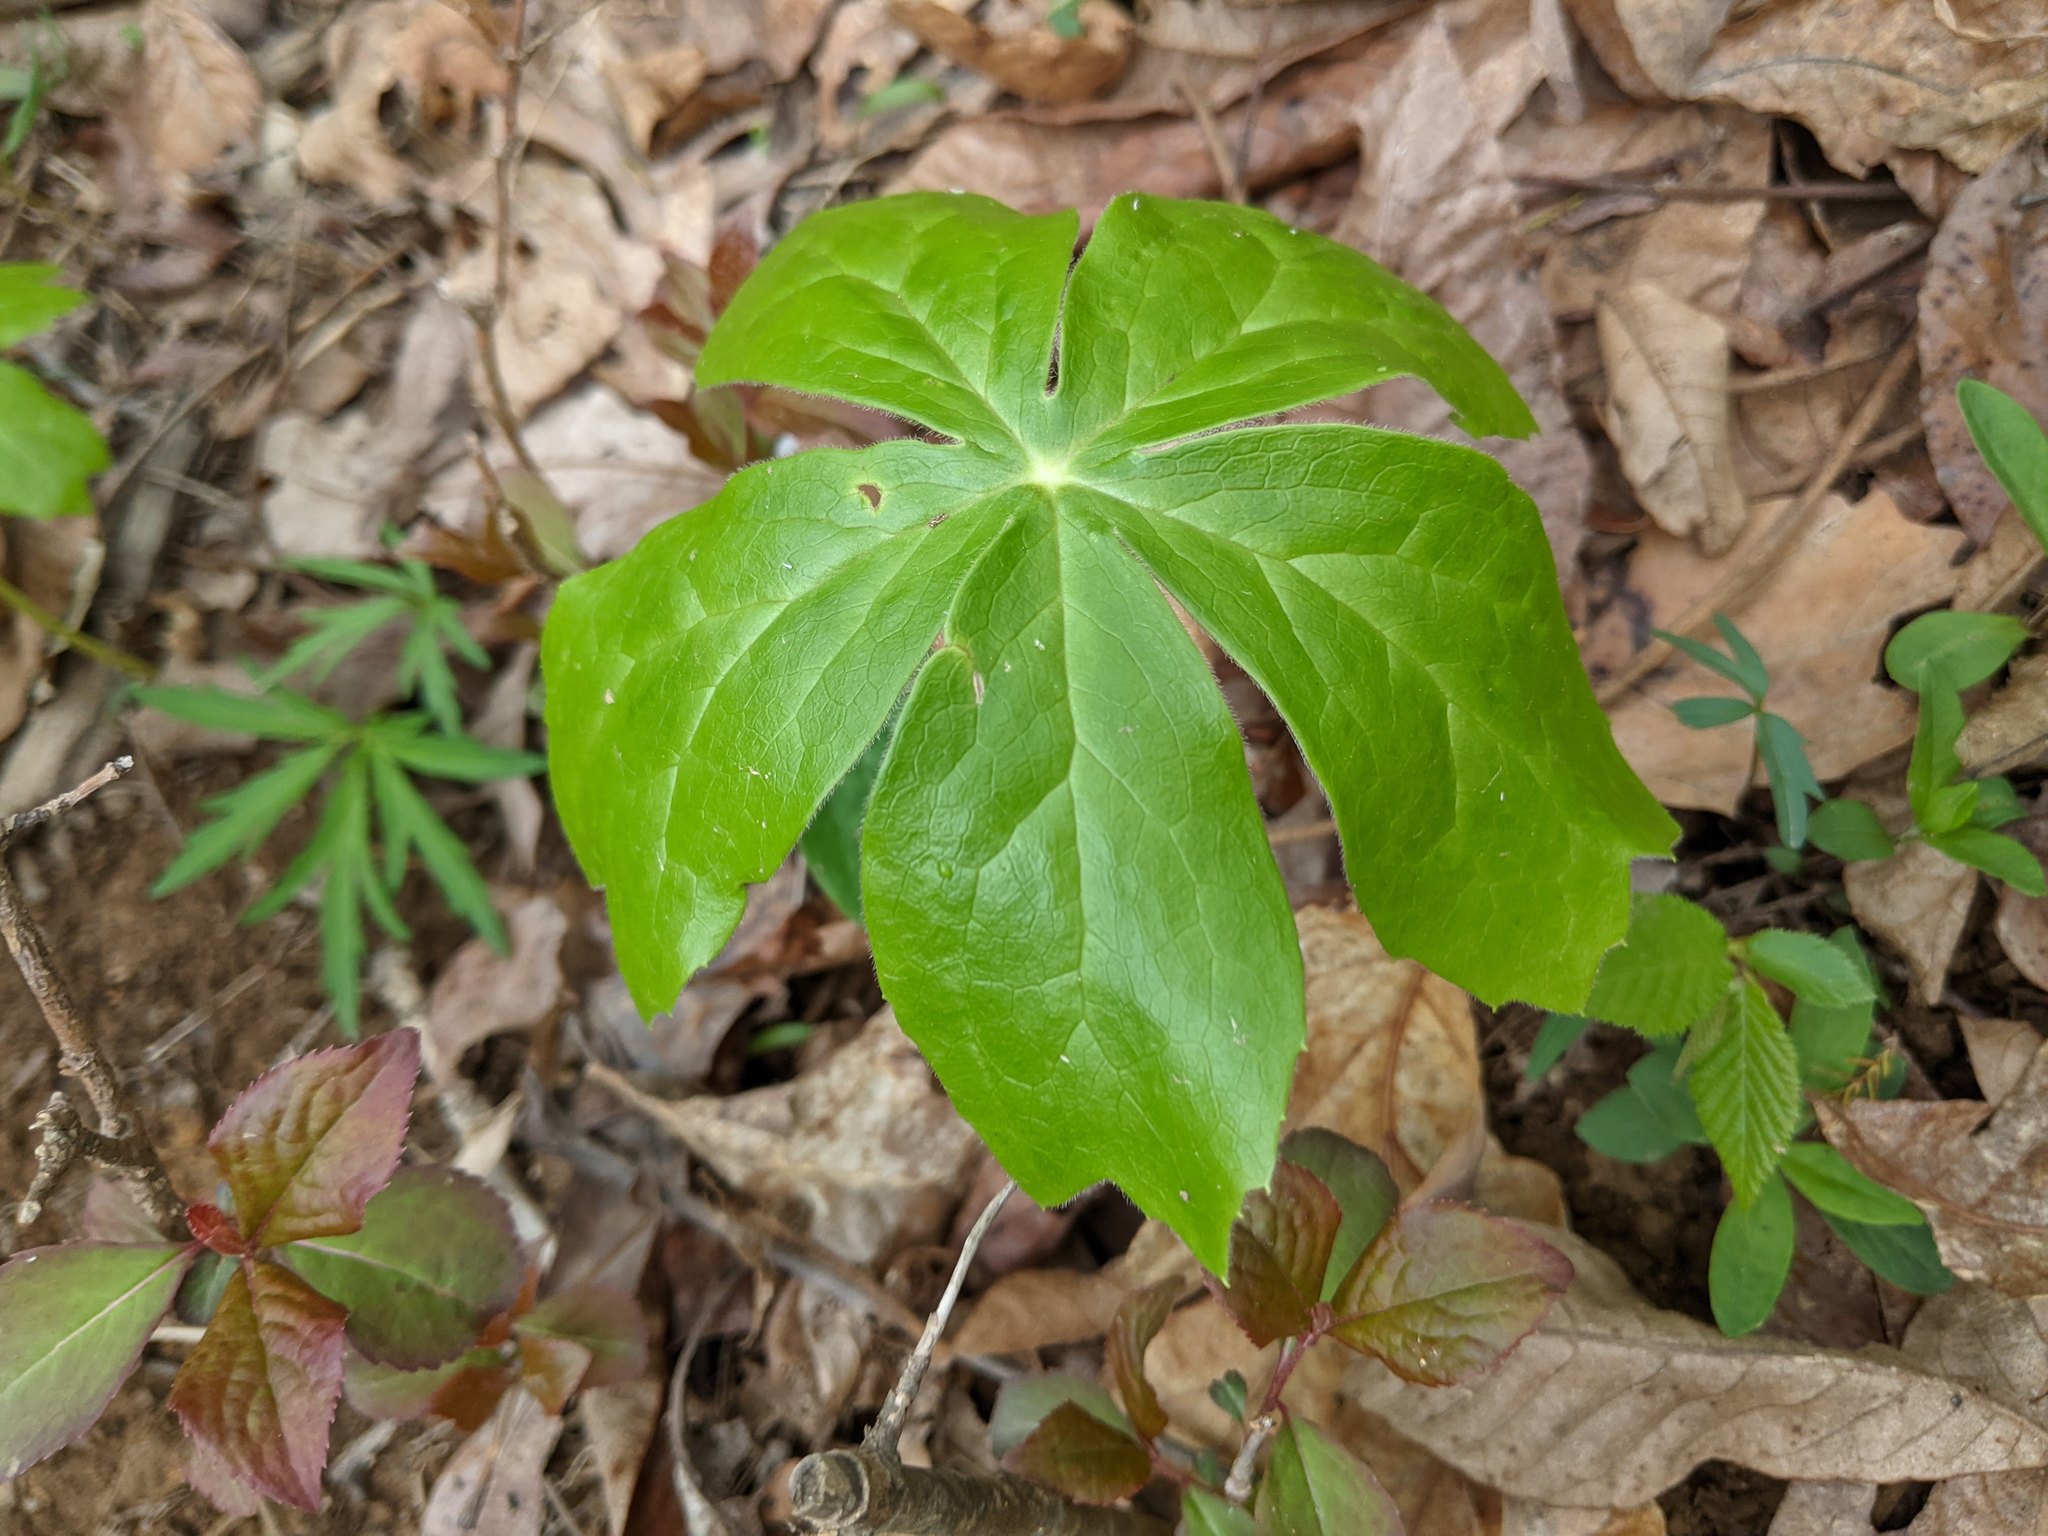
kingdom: Plantae
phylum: Tracheophyta
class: Magnoliopsida
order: Ranunculales
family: Berberidaceae
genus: Podophyllum
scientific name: Podophyllum peltatum
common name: Wild mandrake
